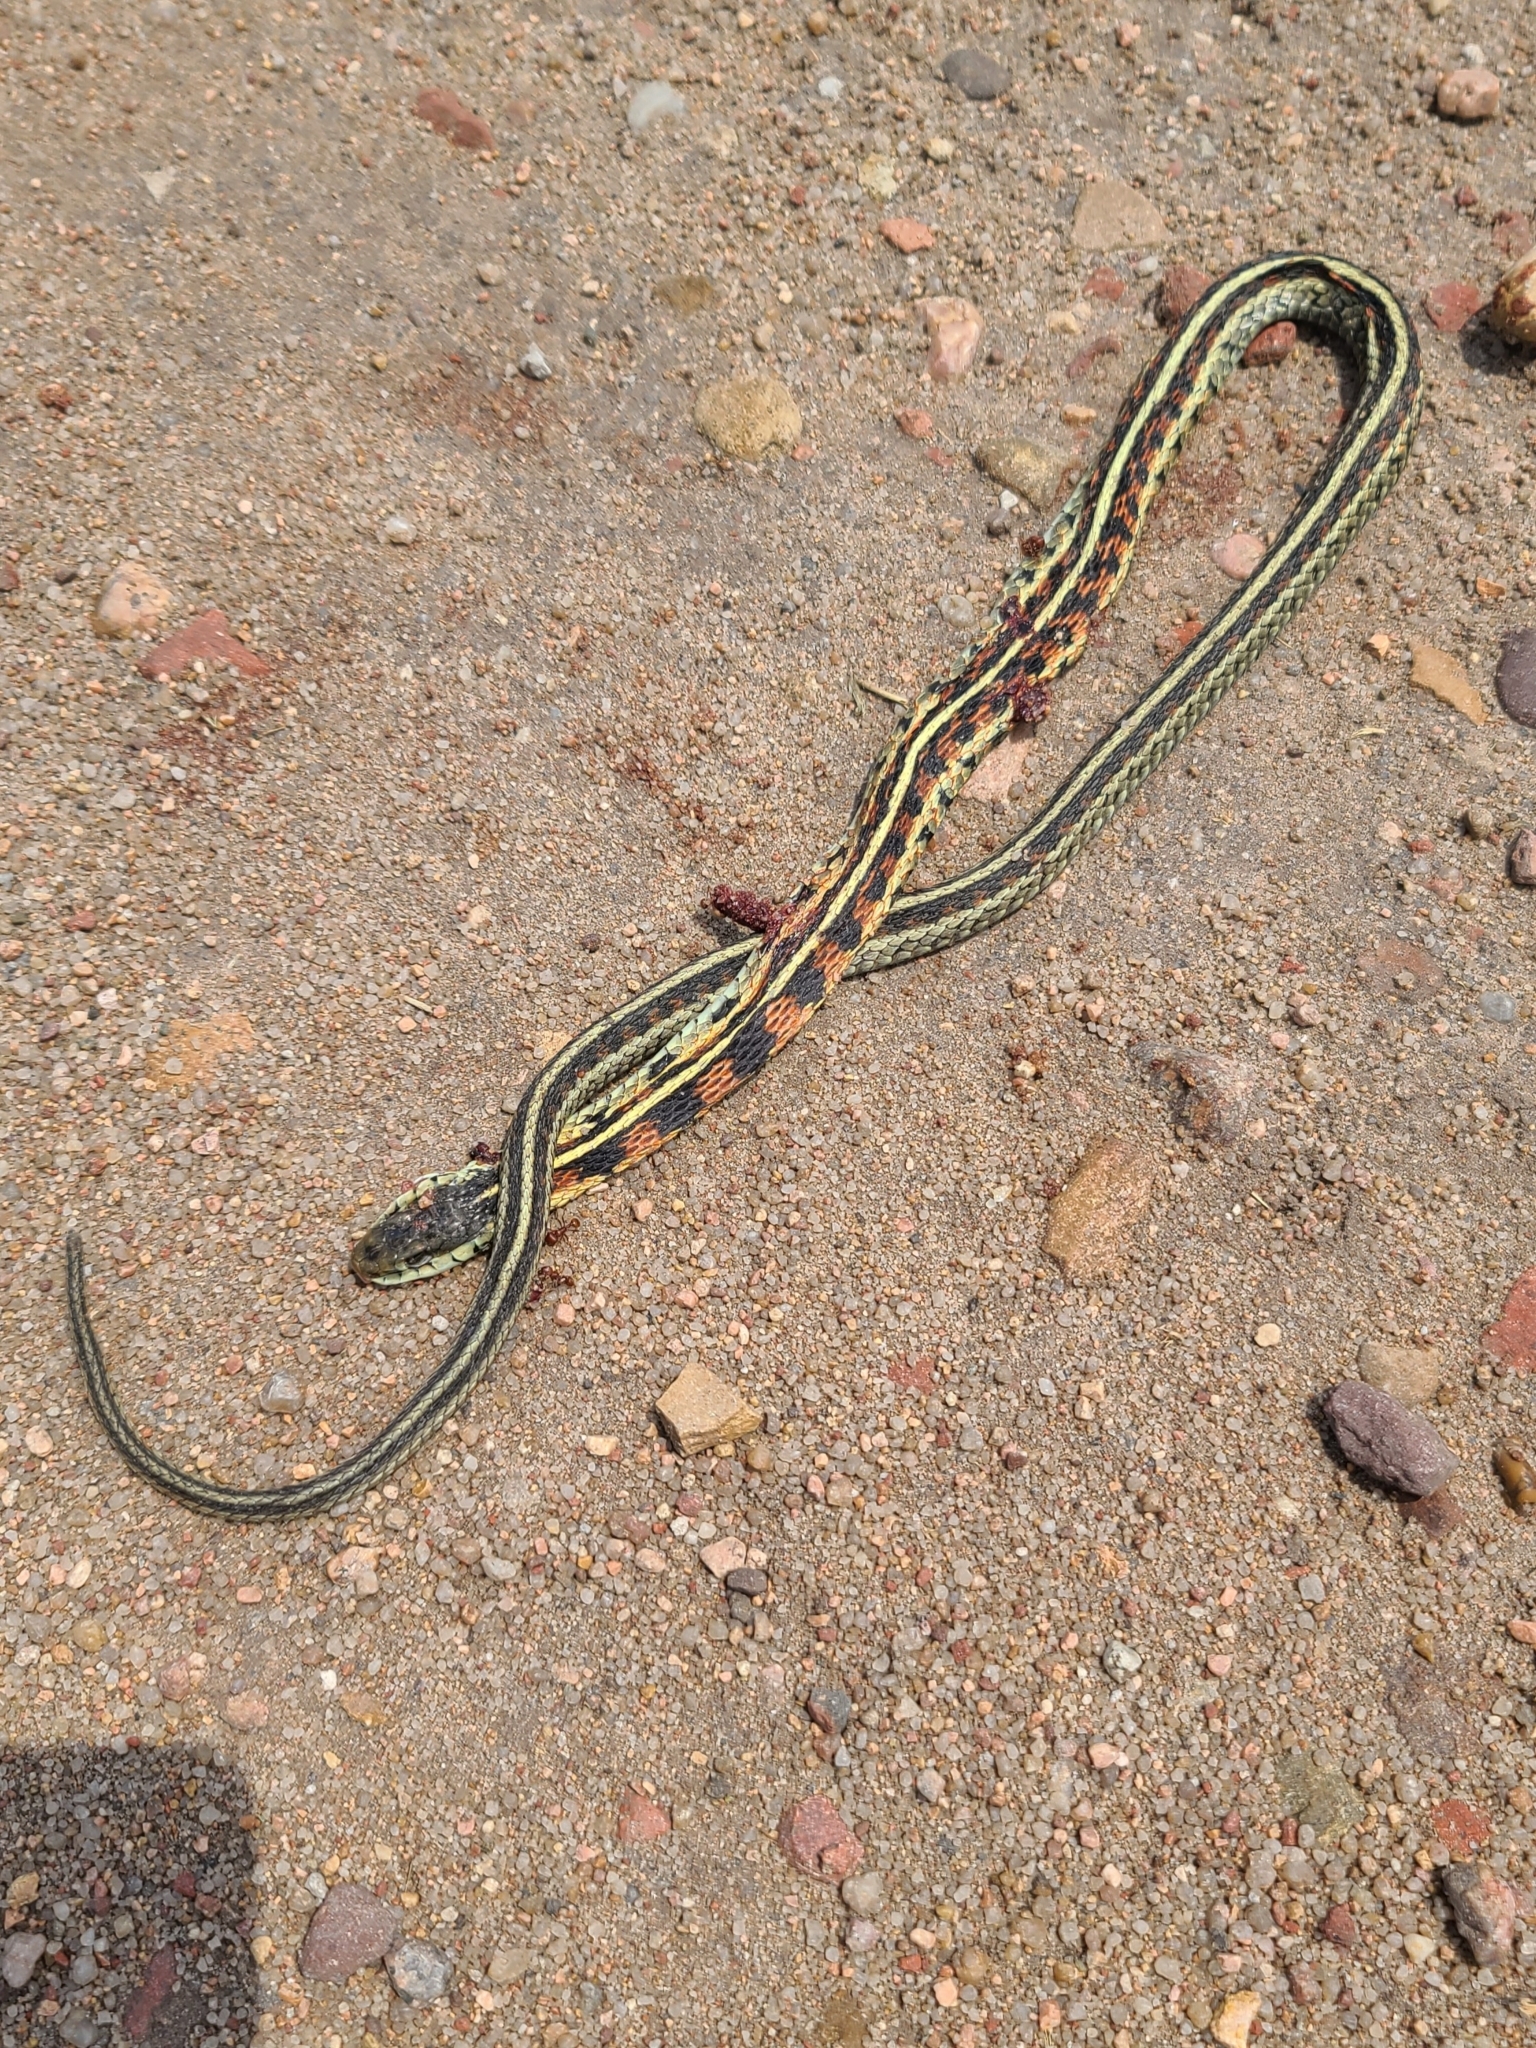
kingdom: Animalia
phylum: Chordata
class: Squamata
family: Colubridae
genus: Thamnophis
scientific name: Thamnophis sirtalis
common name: Common garter snake
